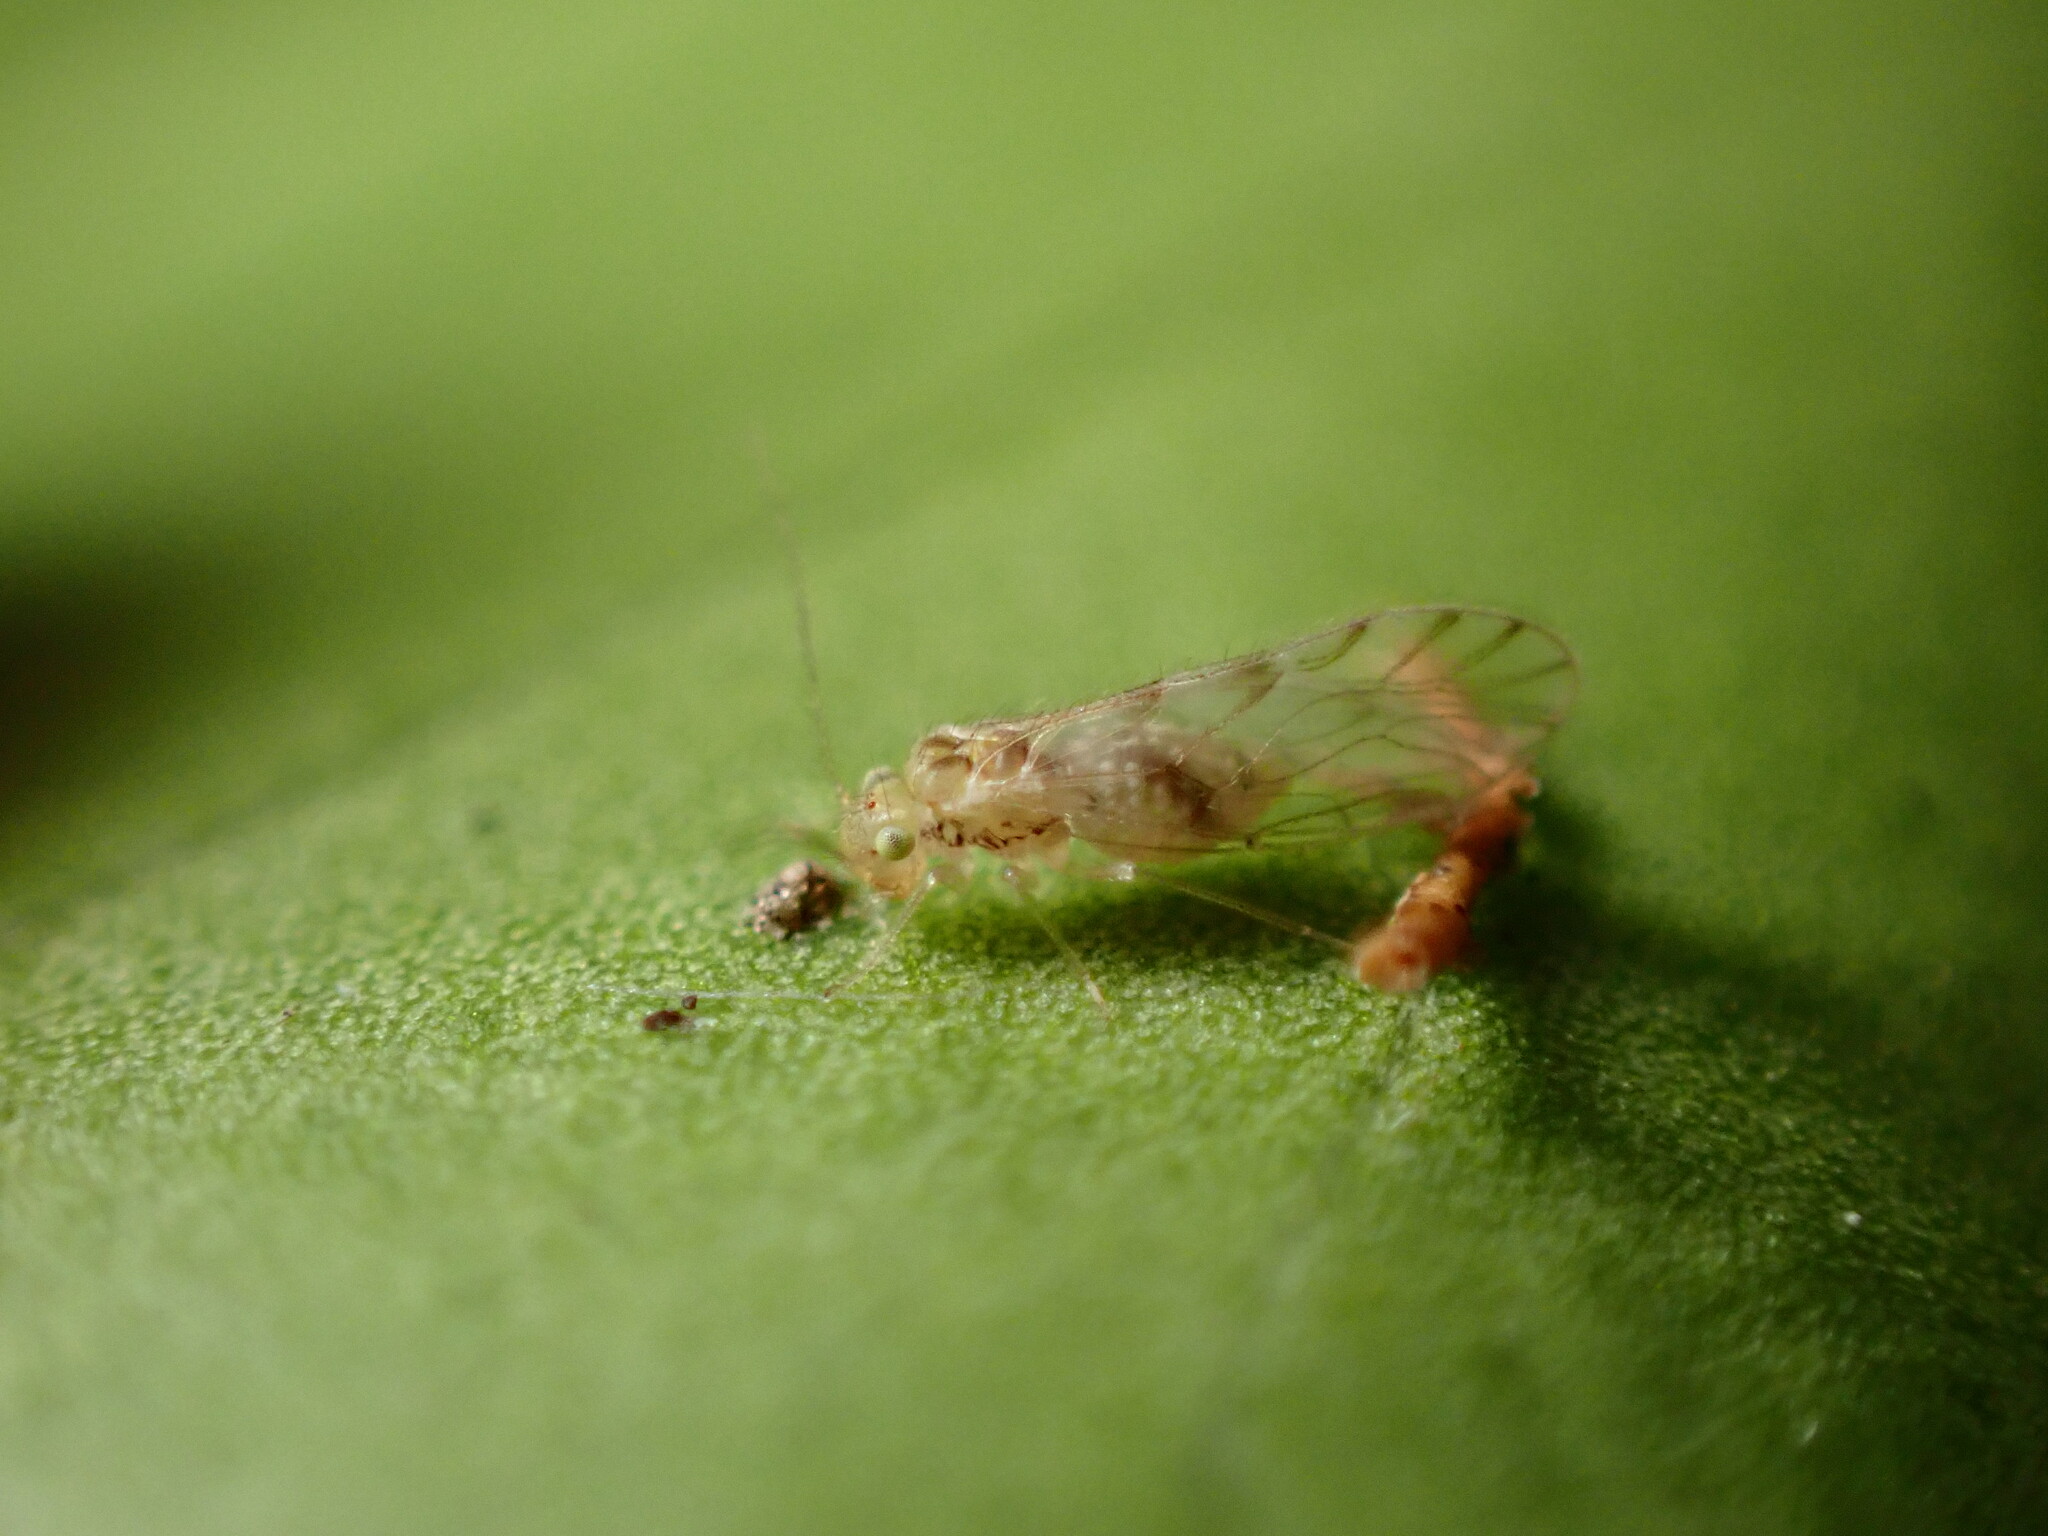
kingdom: Animalia
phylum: Arthropoda
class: Insecta
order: Psocodea
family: Trichopsocidae
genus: Trichopsocus
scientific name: Trichopsocus clarus
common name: Lash-faced psocid
